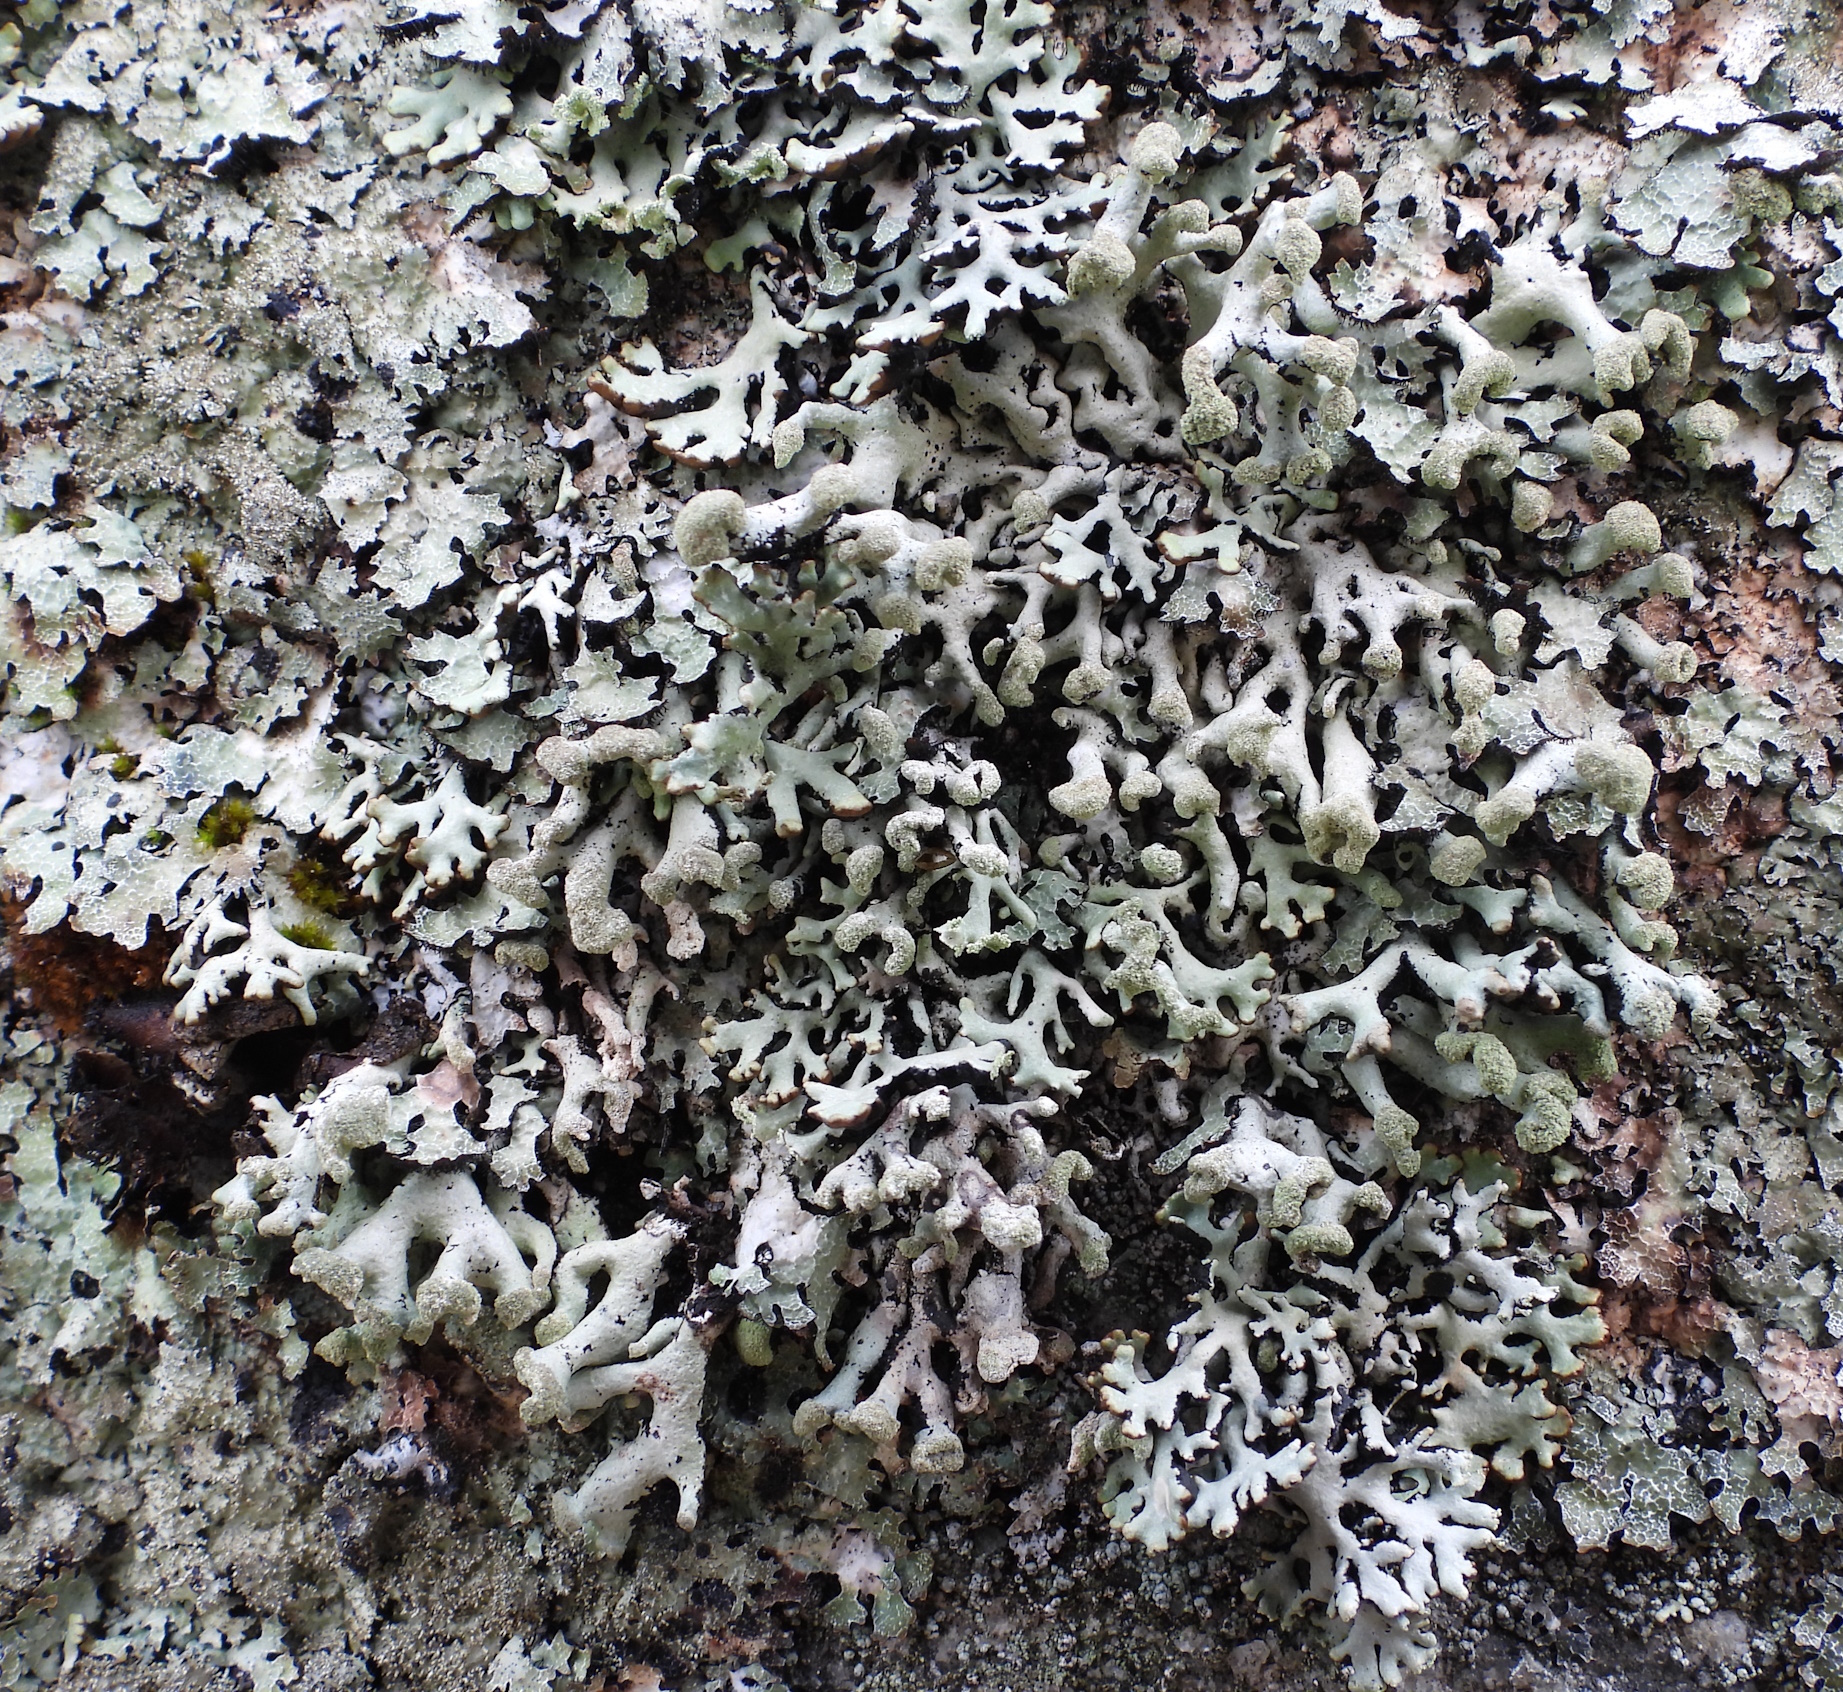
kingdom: Fungi
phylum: Ascomycota
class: Lecanoromycetes
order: Lecanorales
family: Parmeliaceae
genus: Hypogymnia
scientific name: Hypogymnia tubulosa
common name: Powder-headed tube lichen
